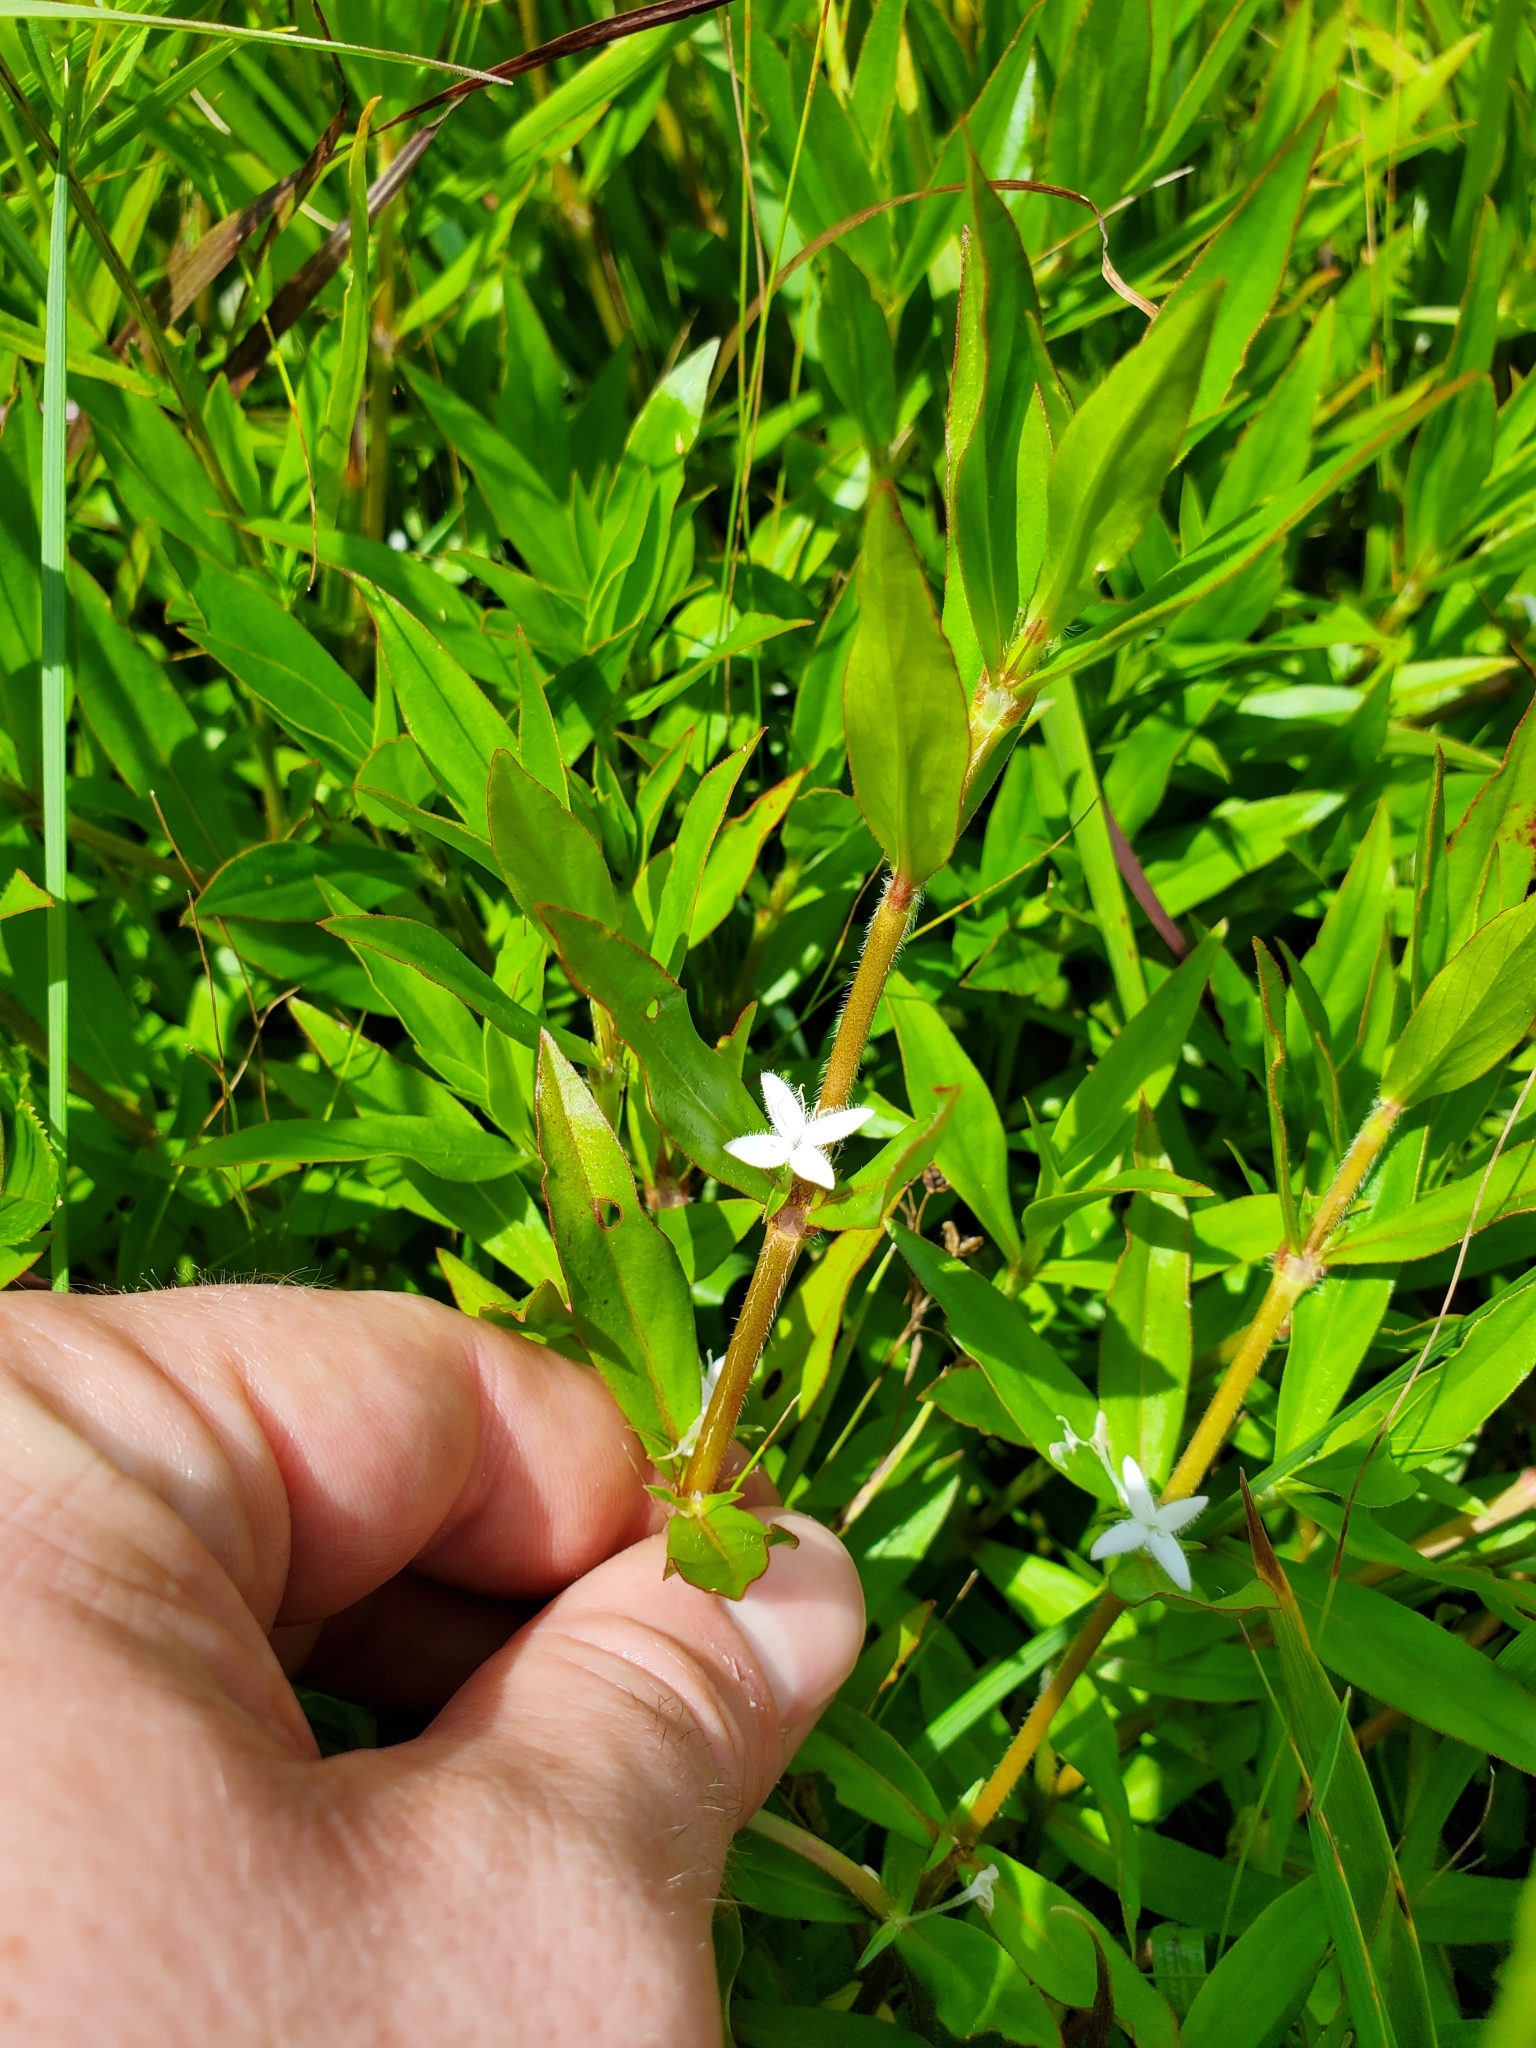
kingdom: Plantae
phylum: Tracheophyta
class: Magnoliopsida
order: Gentianales
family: Rubiaceae
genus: Diodia
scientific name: Diodia virginiana
